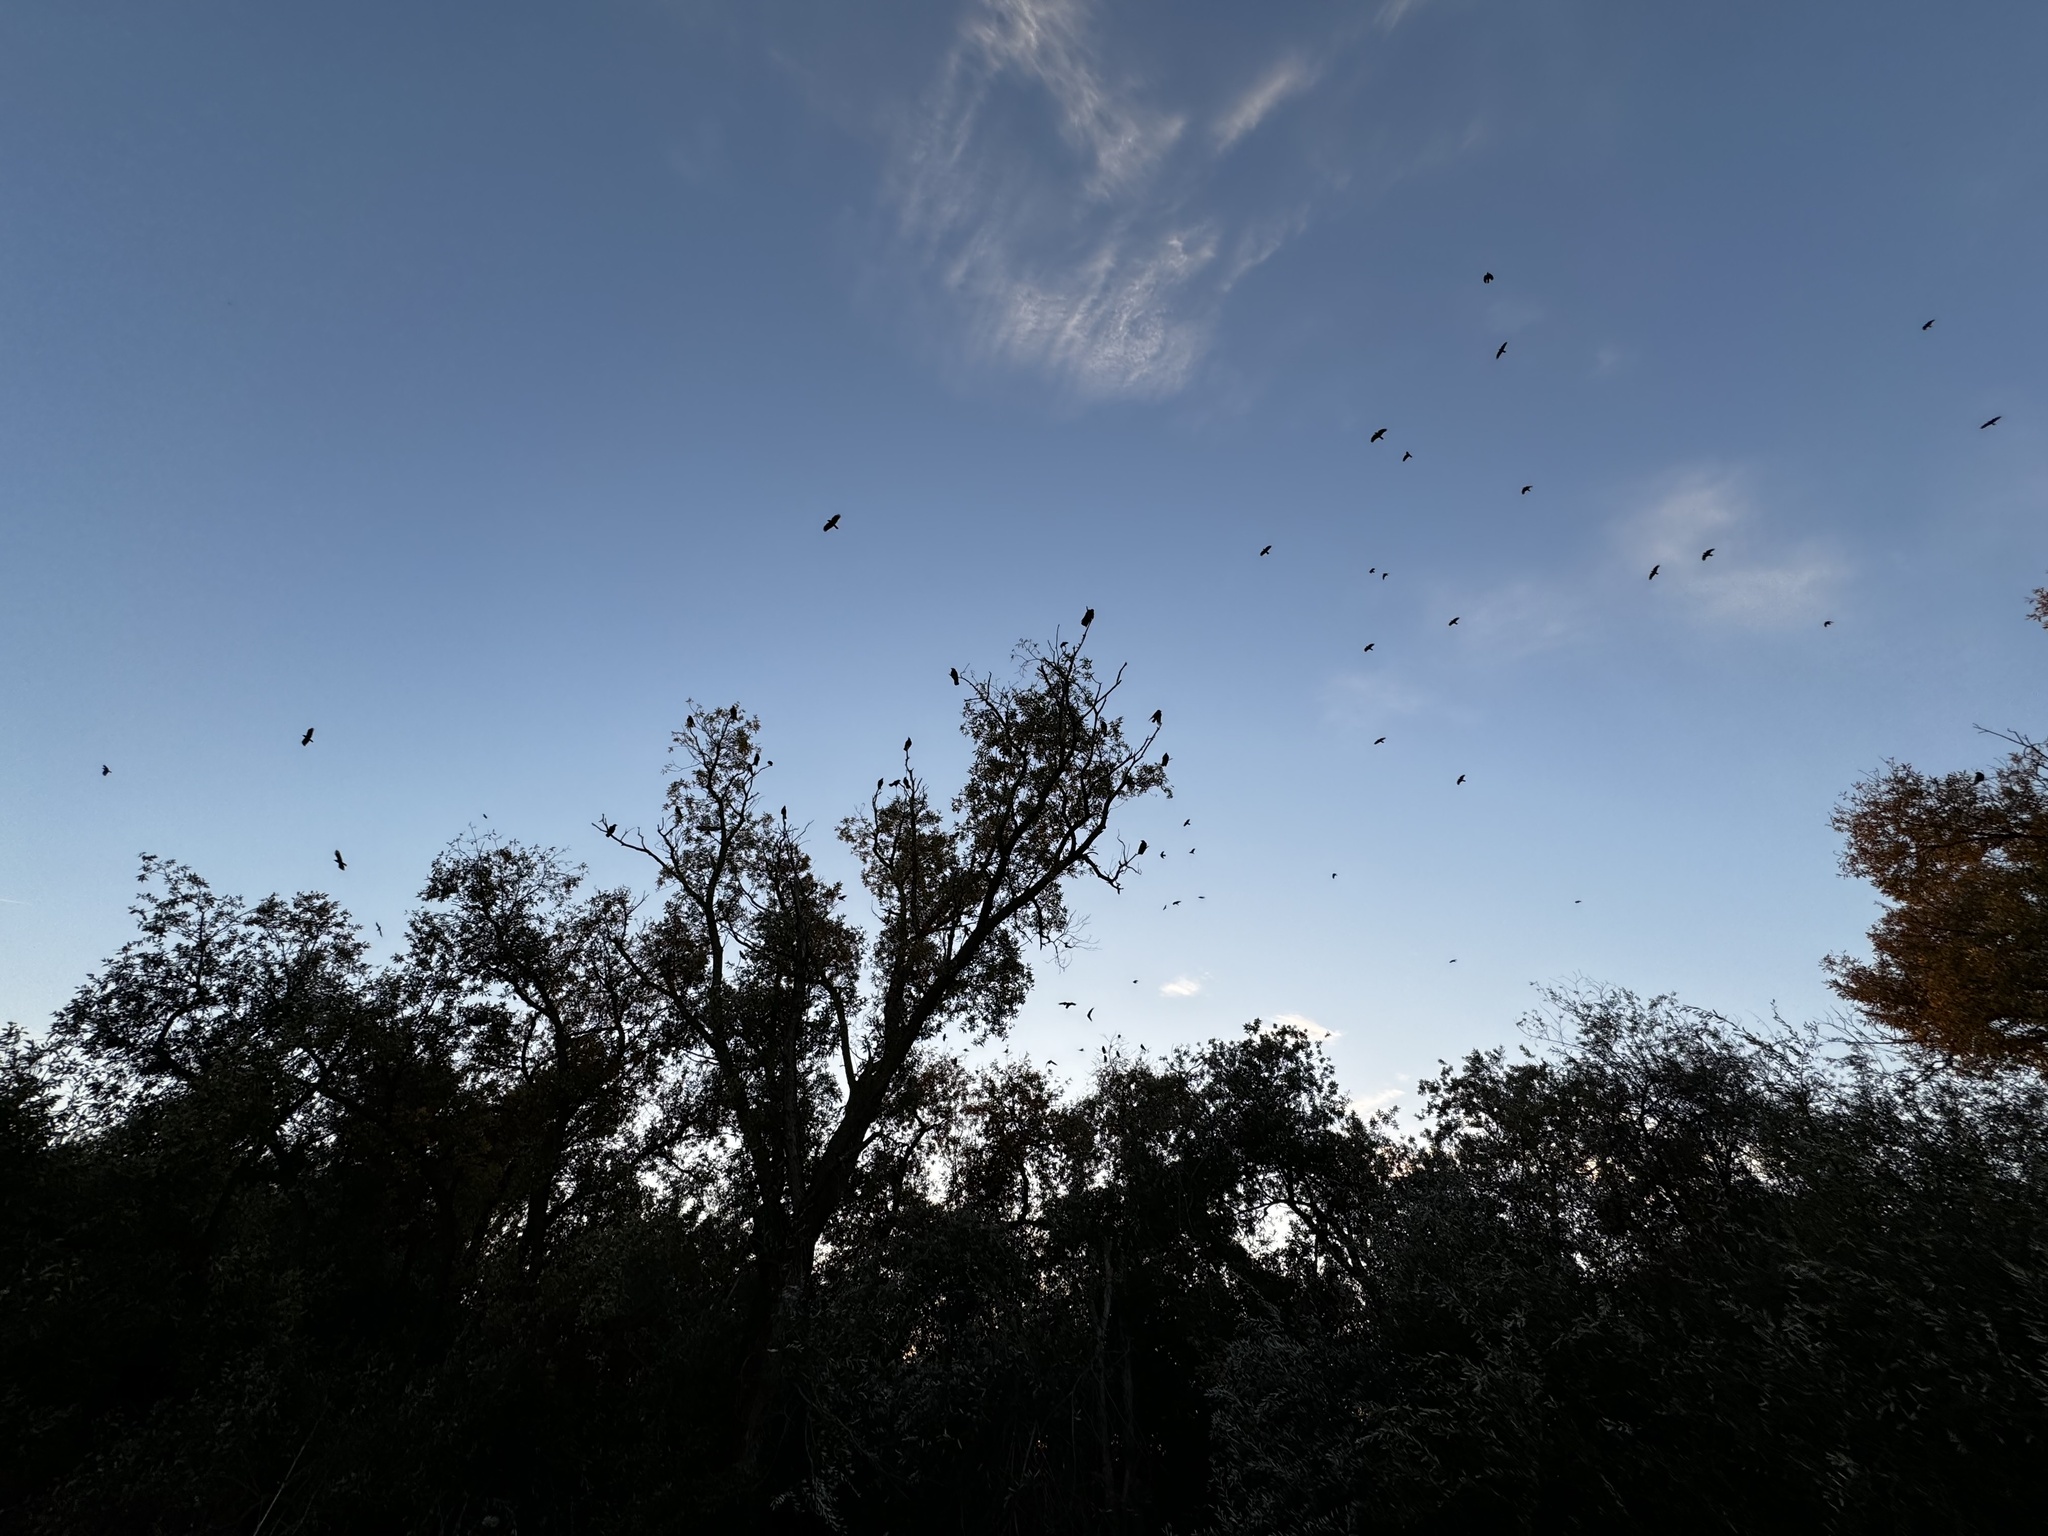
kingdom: Animalia
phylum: Chordata
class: Aves
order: Passeriformes
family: Corvidae
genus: Corvus
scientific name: Corvus brachyrhynchos
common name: American crow
